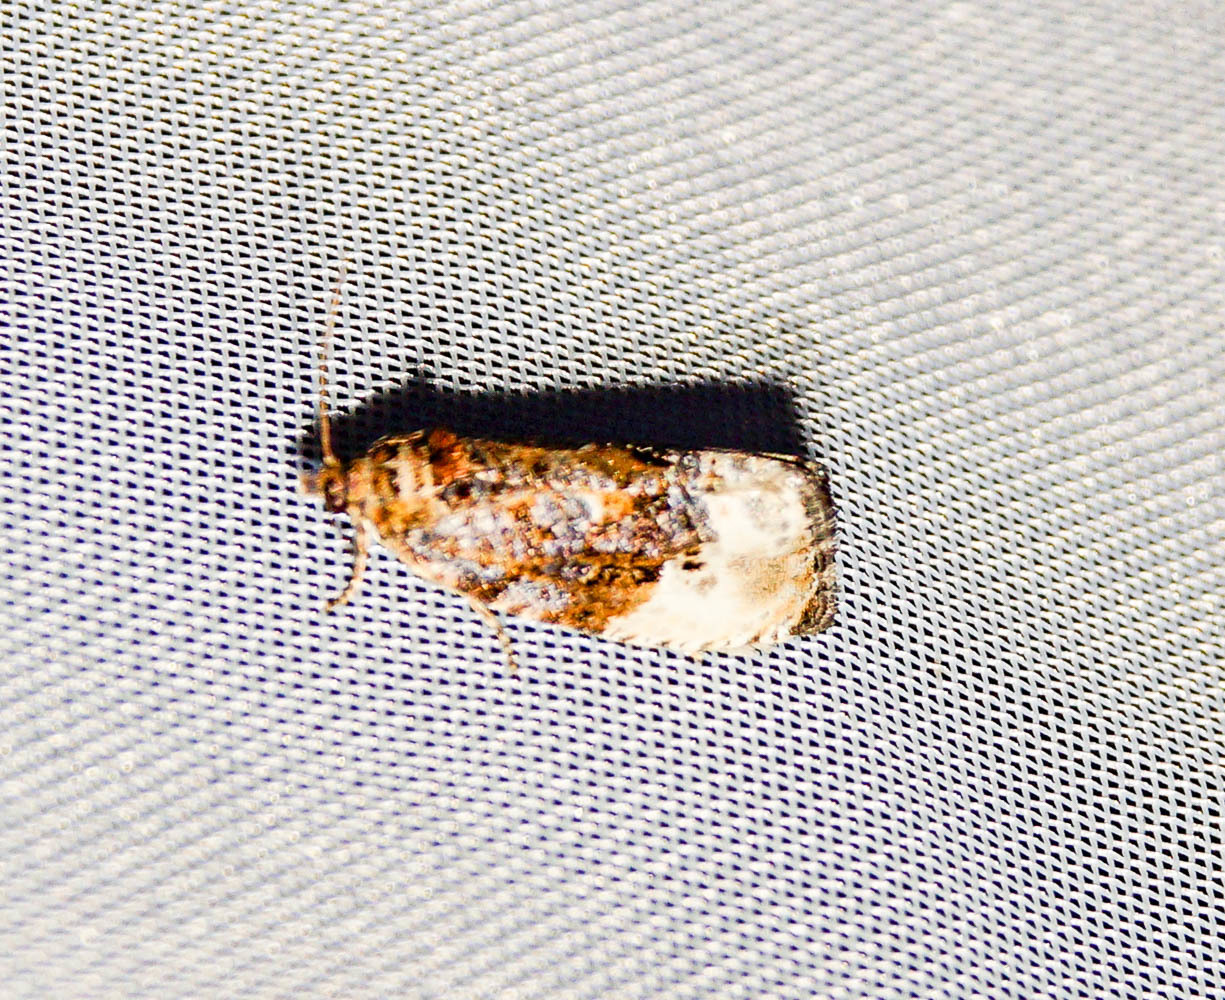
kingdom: Animalia
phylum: Arthropoda
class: Insecta
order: Lepidoptera
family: Tortricidae
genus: Hedya
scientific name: Hedya nubiferana
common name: Marbled orchard tortrix
